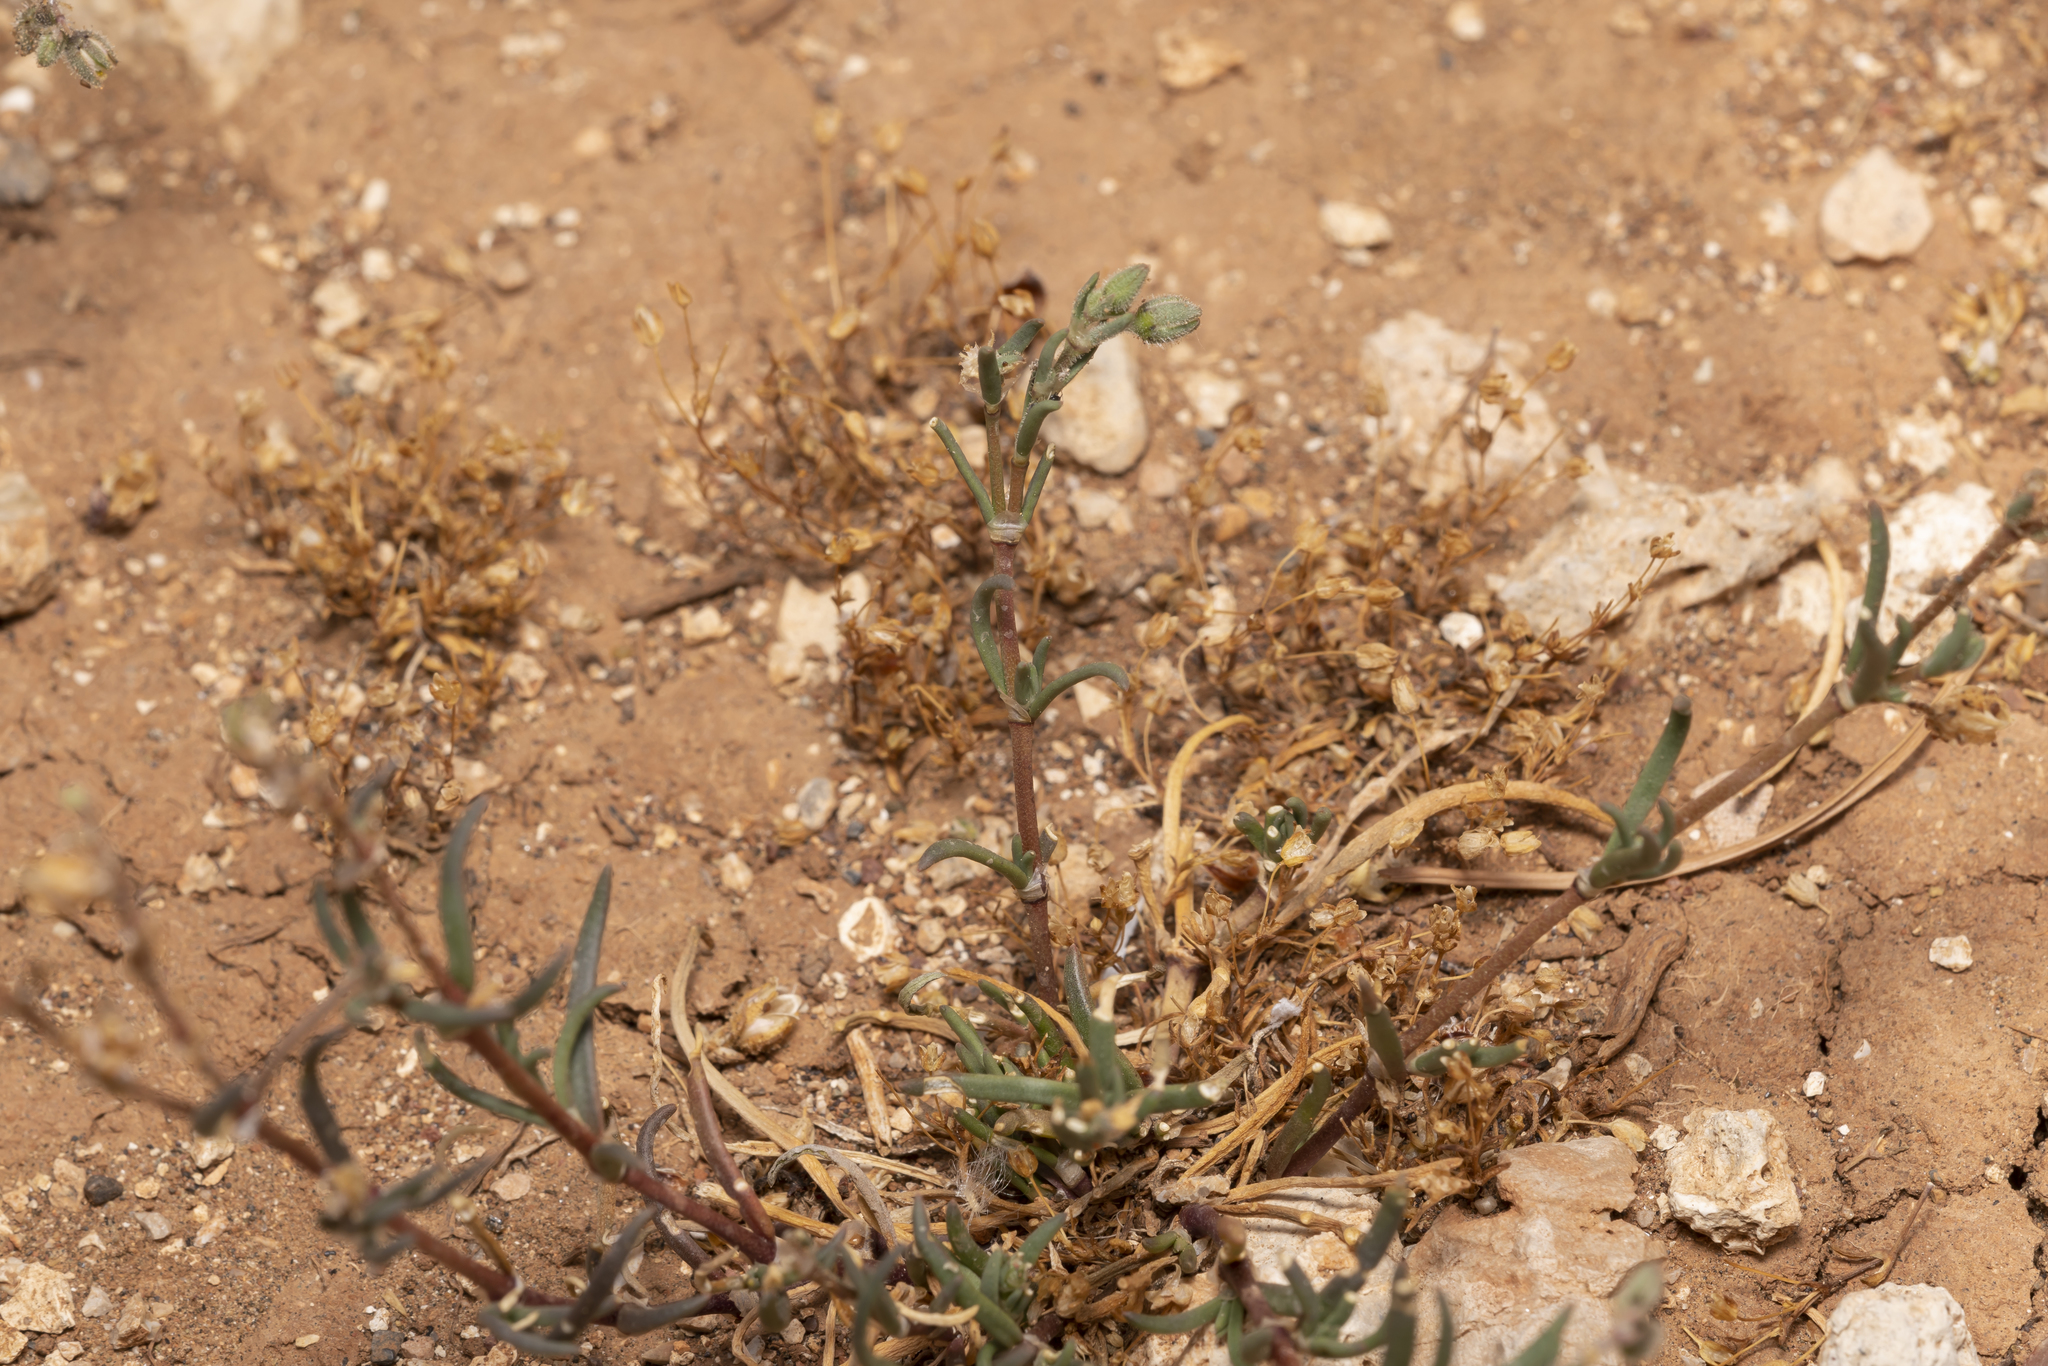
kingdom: Plantae
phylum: Tracheophyta
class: Magnoliopsida
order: Caryophyllales
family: Caryophyllaceae
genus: Spergularia
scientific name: Spergularia bocconei
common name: Greek sea-spurrey
